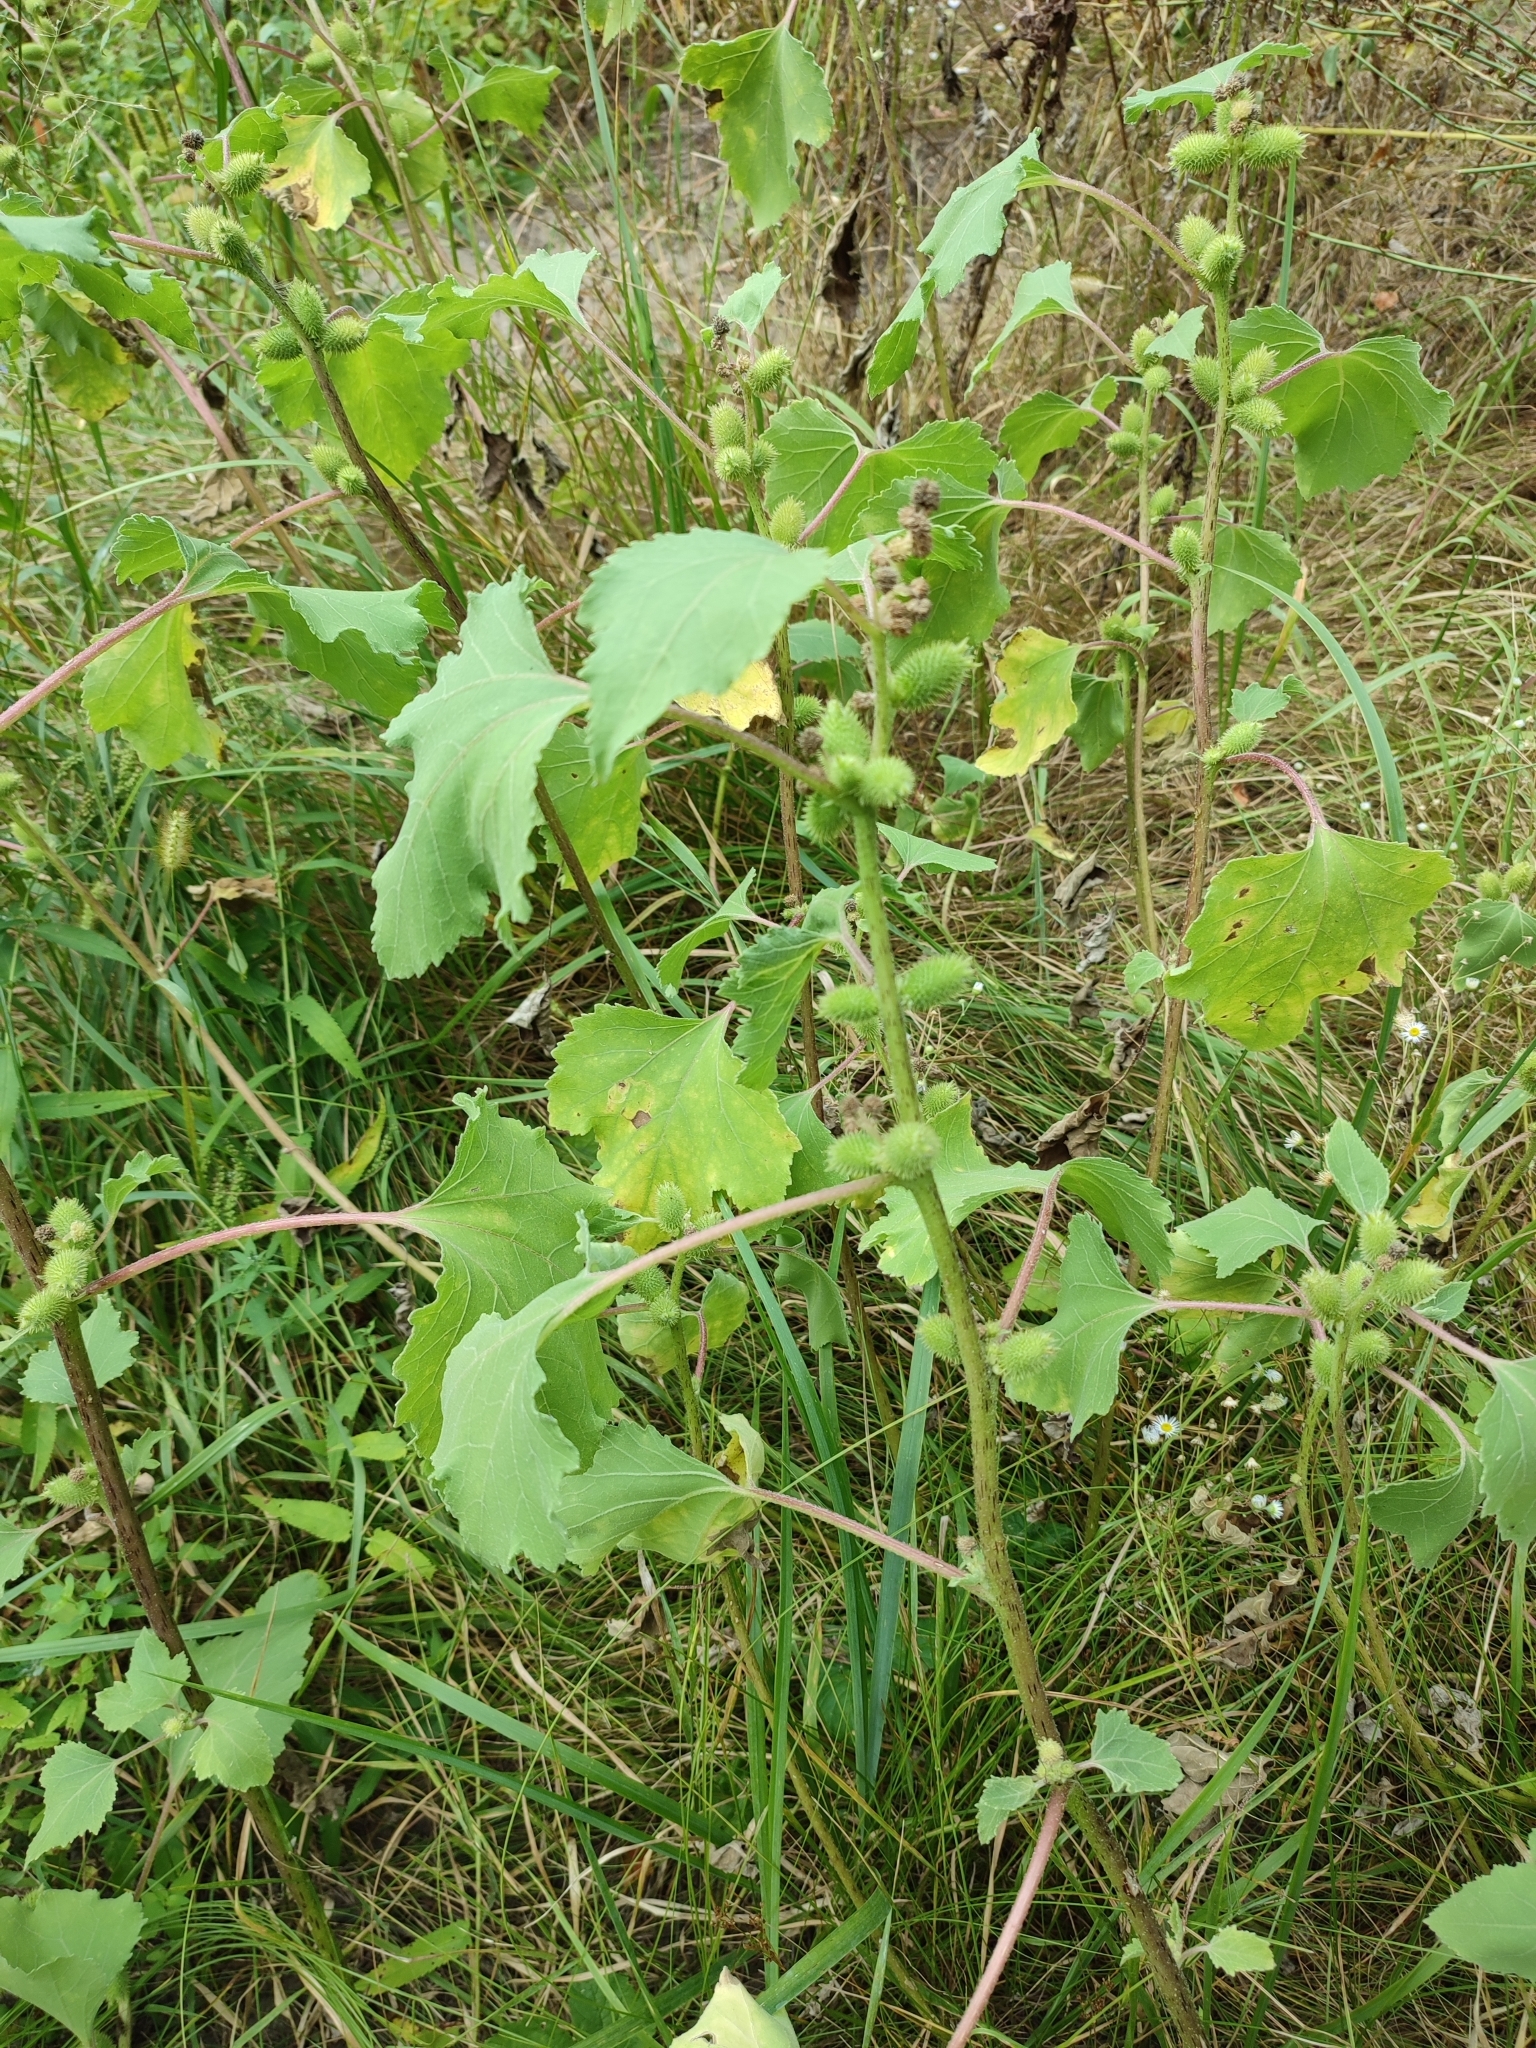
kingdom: Plantae
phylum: Tracheophyta
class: Magnoliopsida
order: Asterales
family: Asteraceae
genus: Xanthium
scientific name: Xanthium orientale
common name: Californian burr
